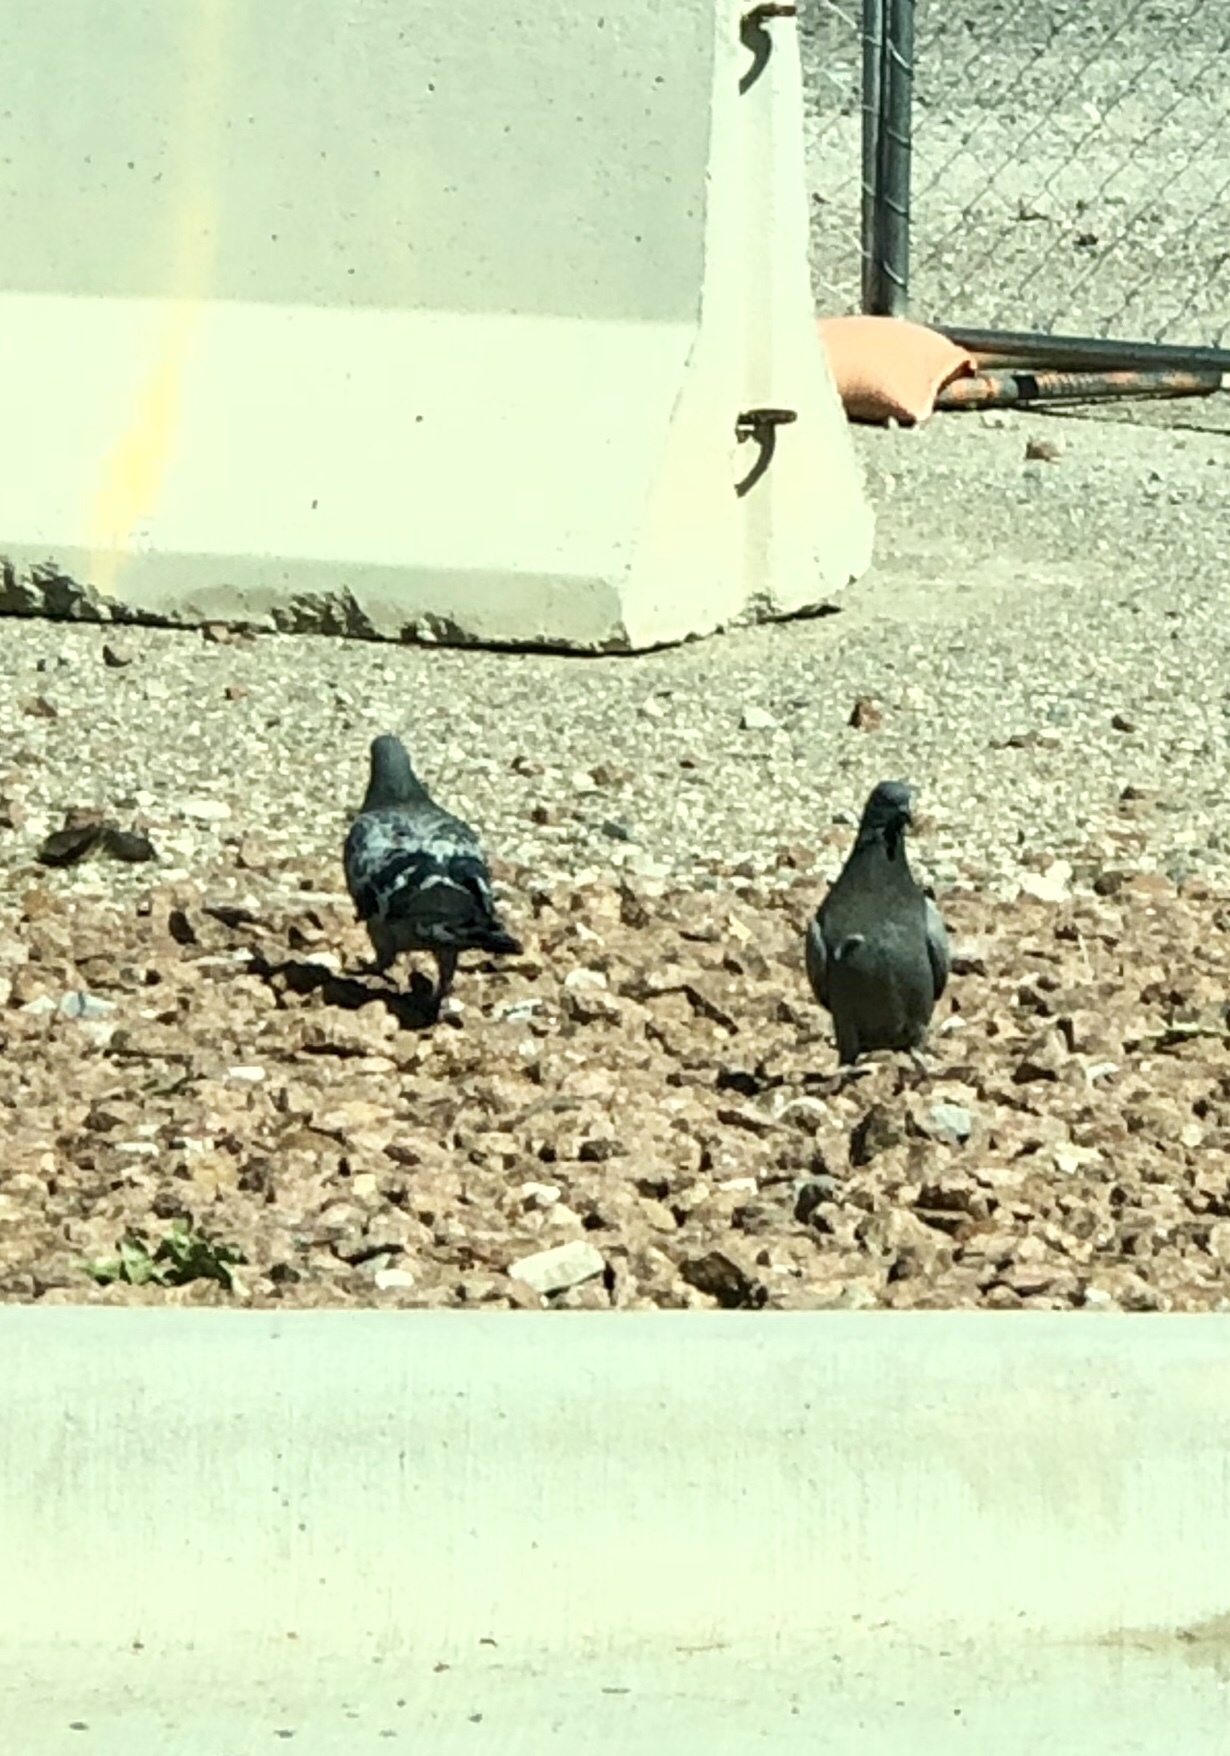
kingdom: Animalia
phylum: Chordata
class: Aves
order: Columbiformes
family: Columbidae
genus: Columba
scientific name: Columba livia
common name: Rock pigeon
